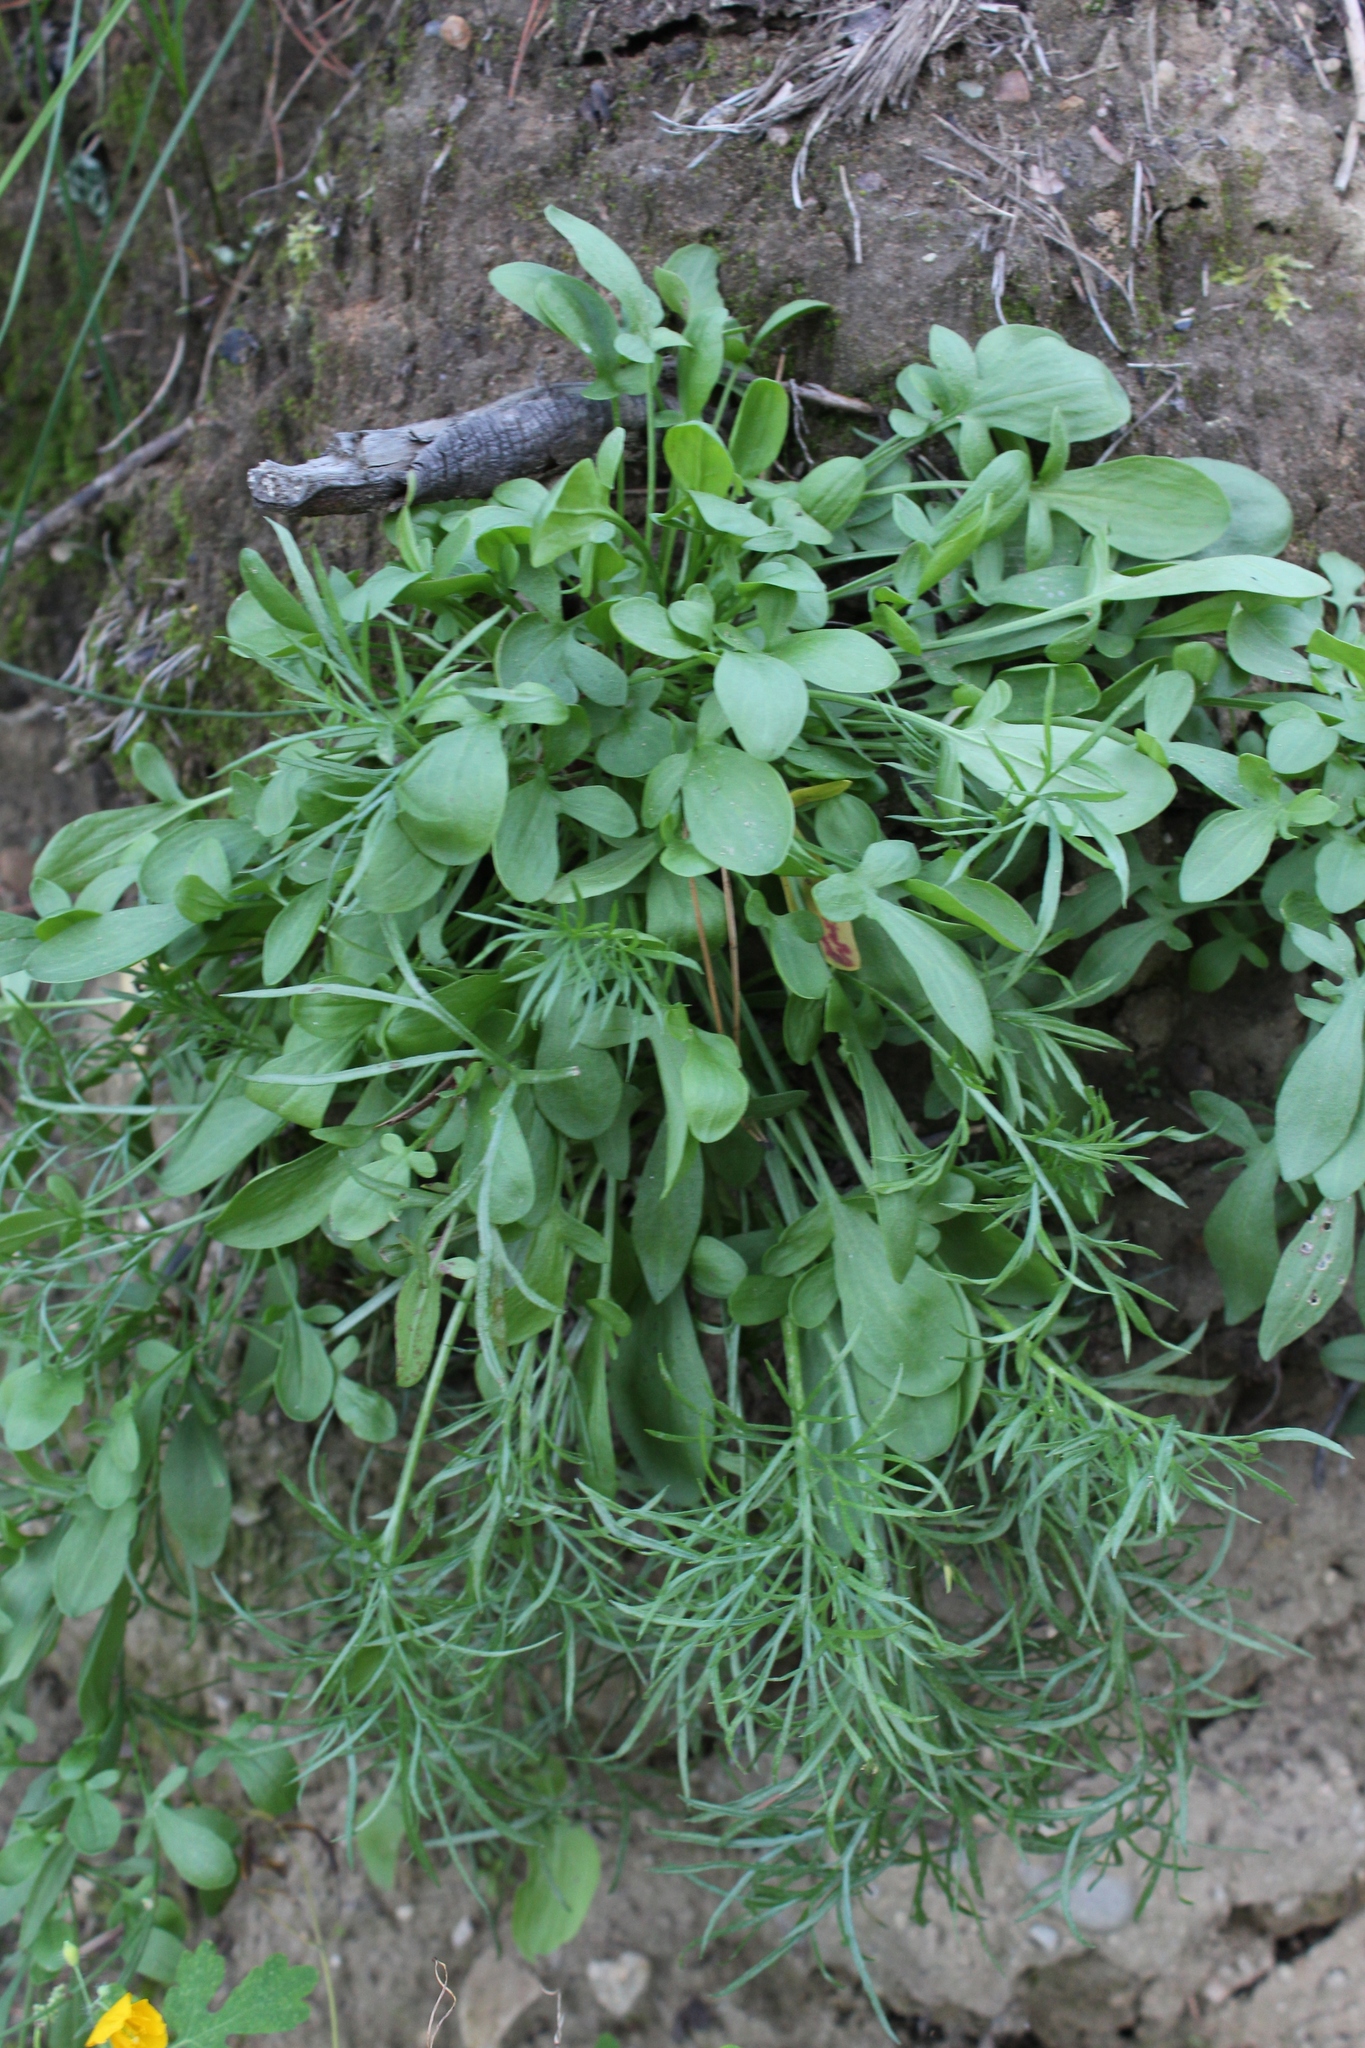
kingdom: Plantae
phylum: Tracheophyta
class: Magnoliopsida
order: Caryophyllales
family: Polygonaceae
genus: Rumex
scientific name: Rumex acetosella
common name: Common sheep sorrel
